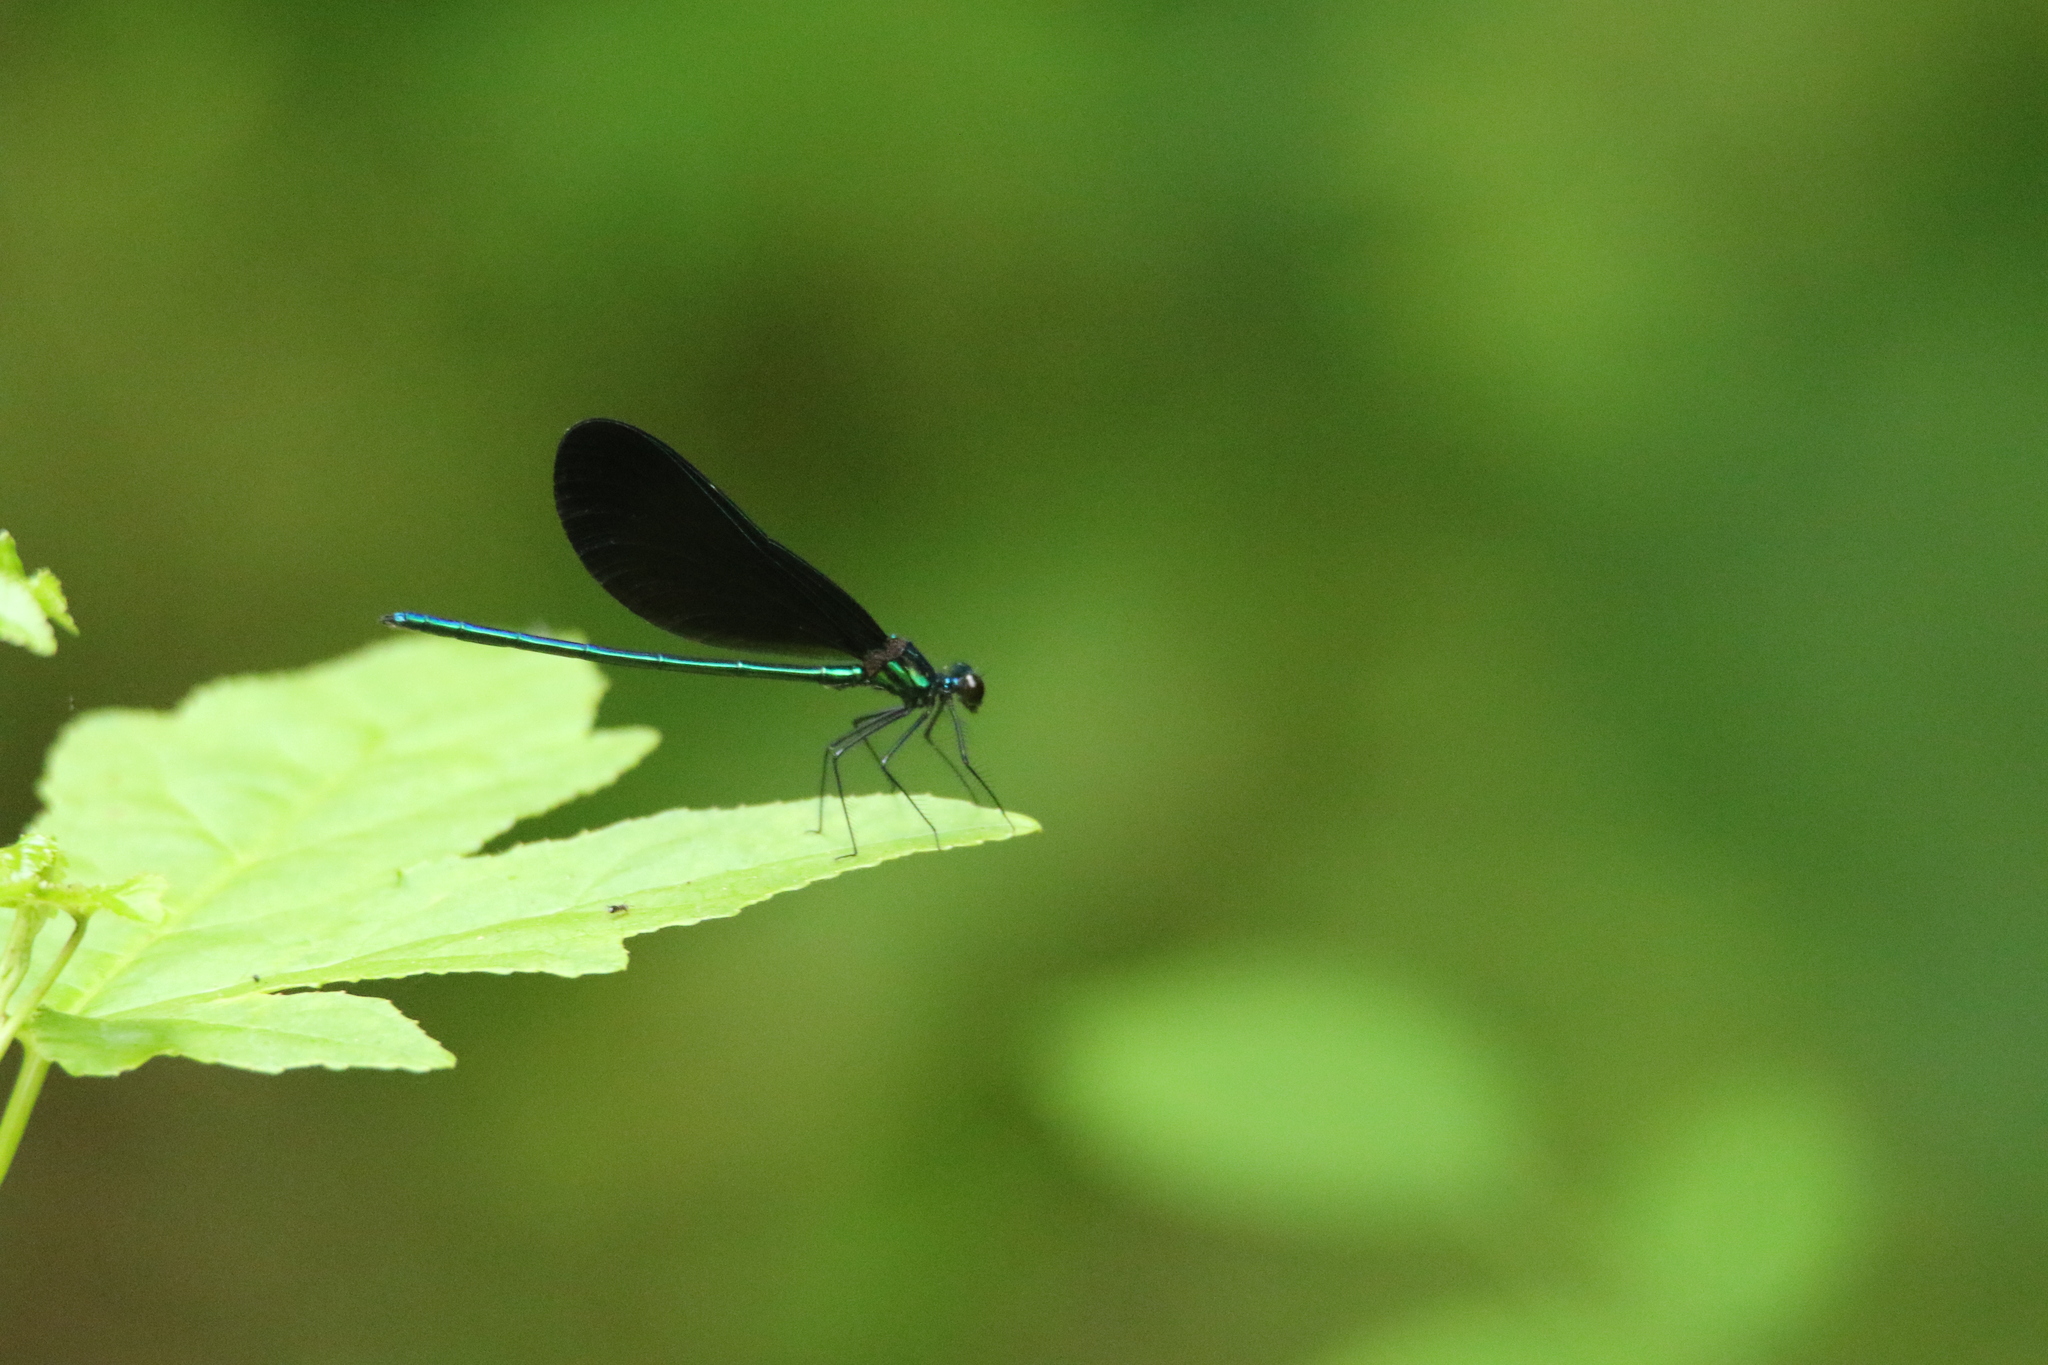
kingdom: Animalia
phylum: Arthropoda
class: Insecta
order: Odonata
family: Calopterygidae
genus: Calopteryx
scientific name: Calopteryx maculata
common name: Ebony jewelwing
